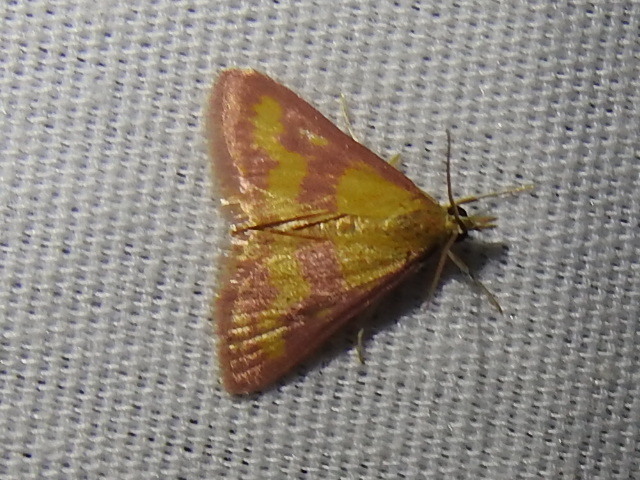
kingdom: Animalia
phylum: Arthropoda
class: Insecta
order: Lepidoptera
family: Crambidae
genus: Pyrausta
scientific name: Pyrausta laticlavia
